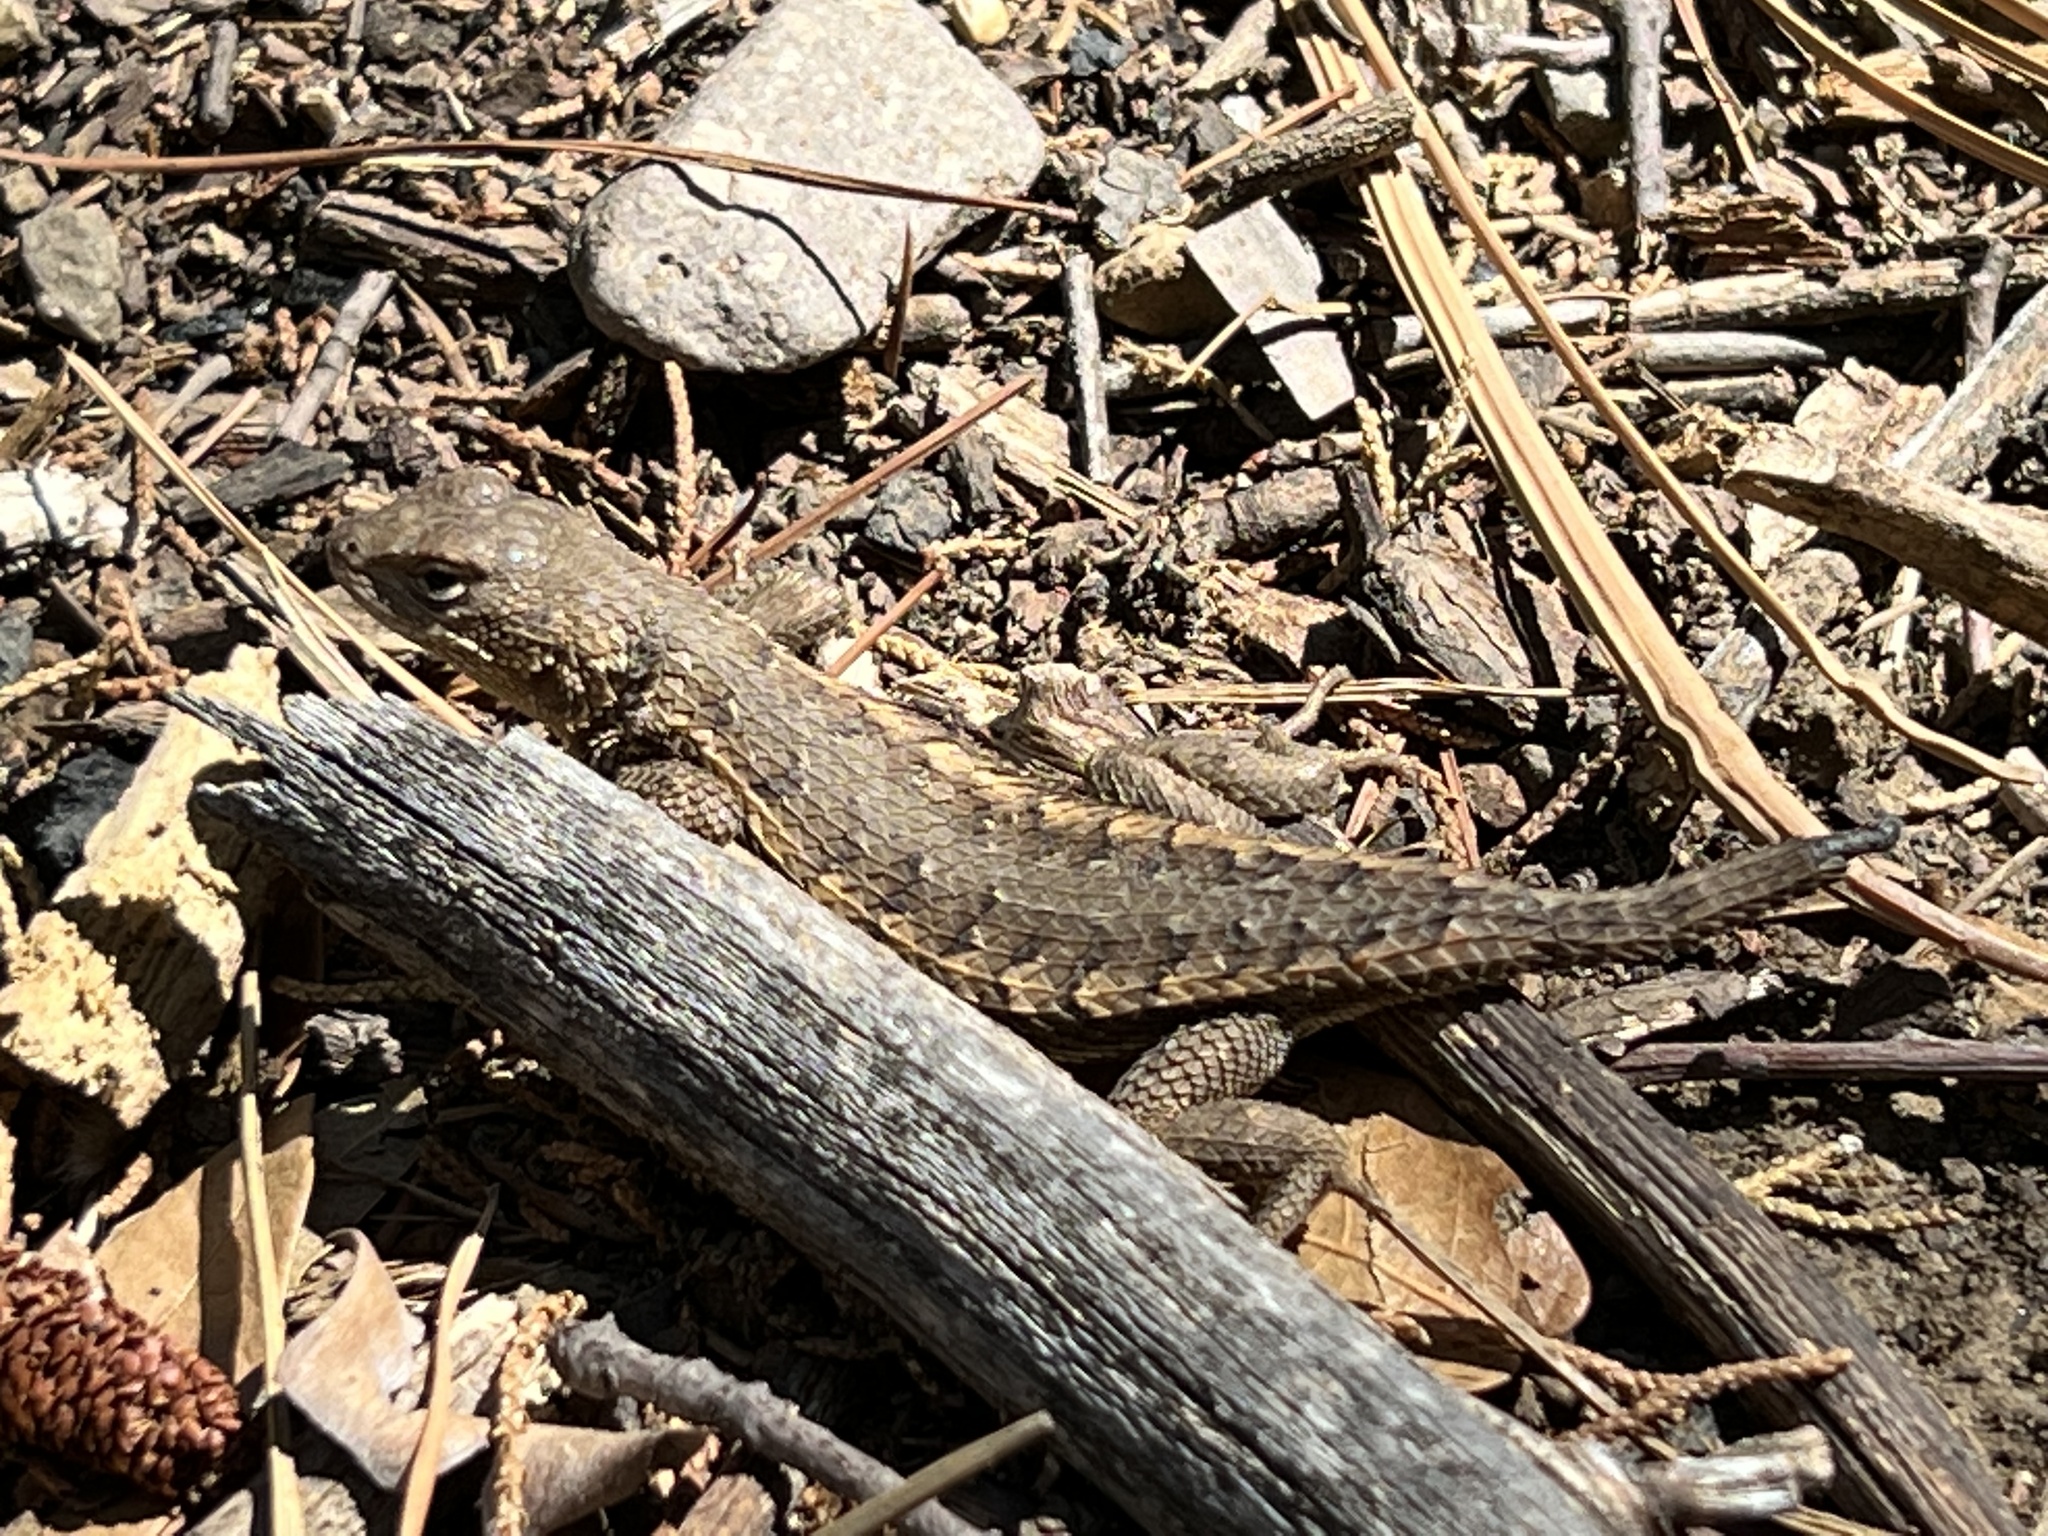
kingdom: Animalia
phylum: Chordata
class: Squamata
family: Phrynosomatidae
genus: Sceloporus
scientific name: Sceloporus virgatus
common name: Striped plateau lizard
